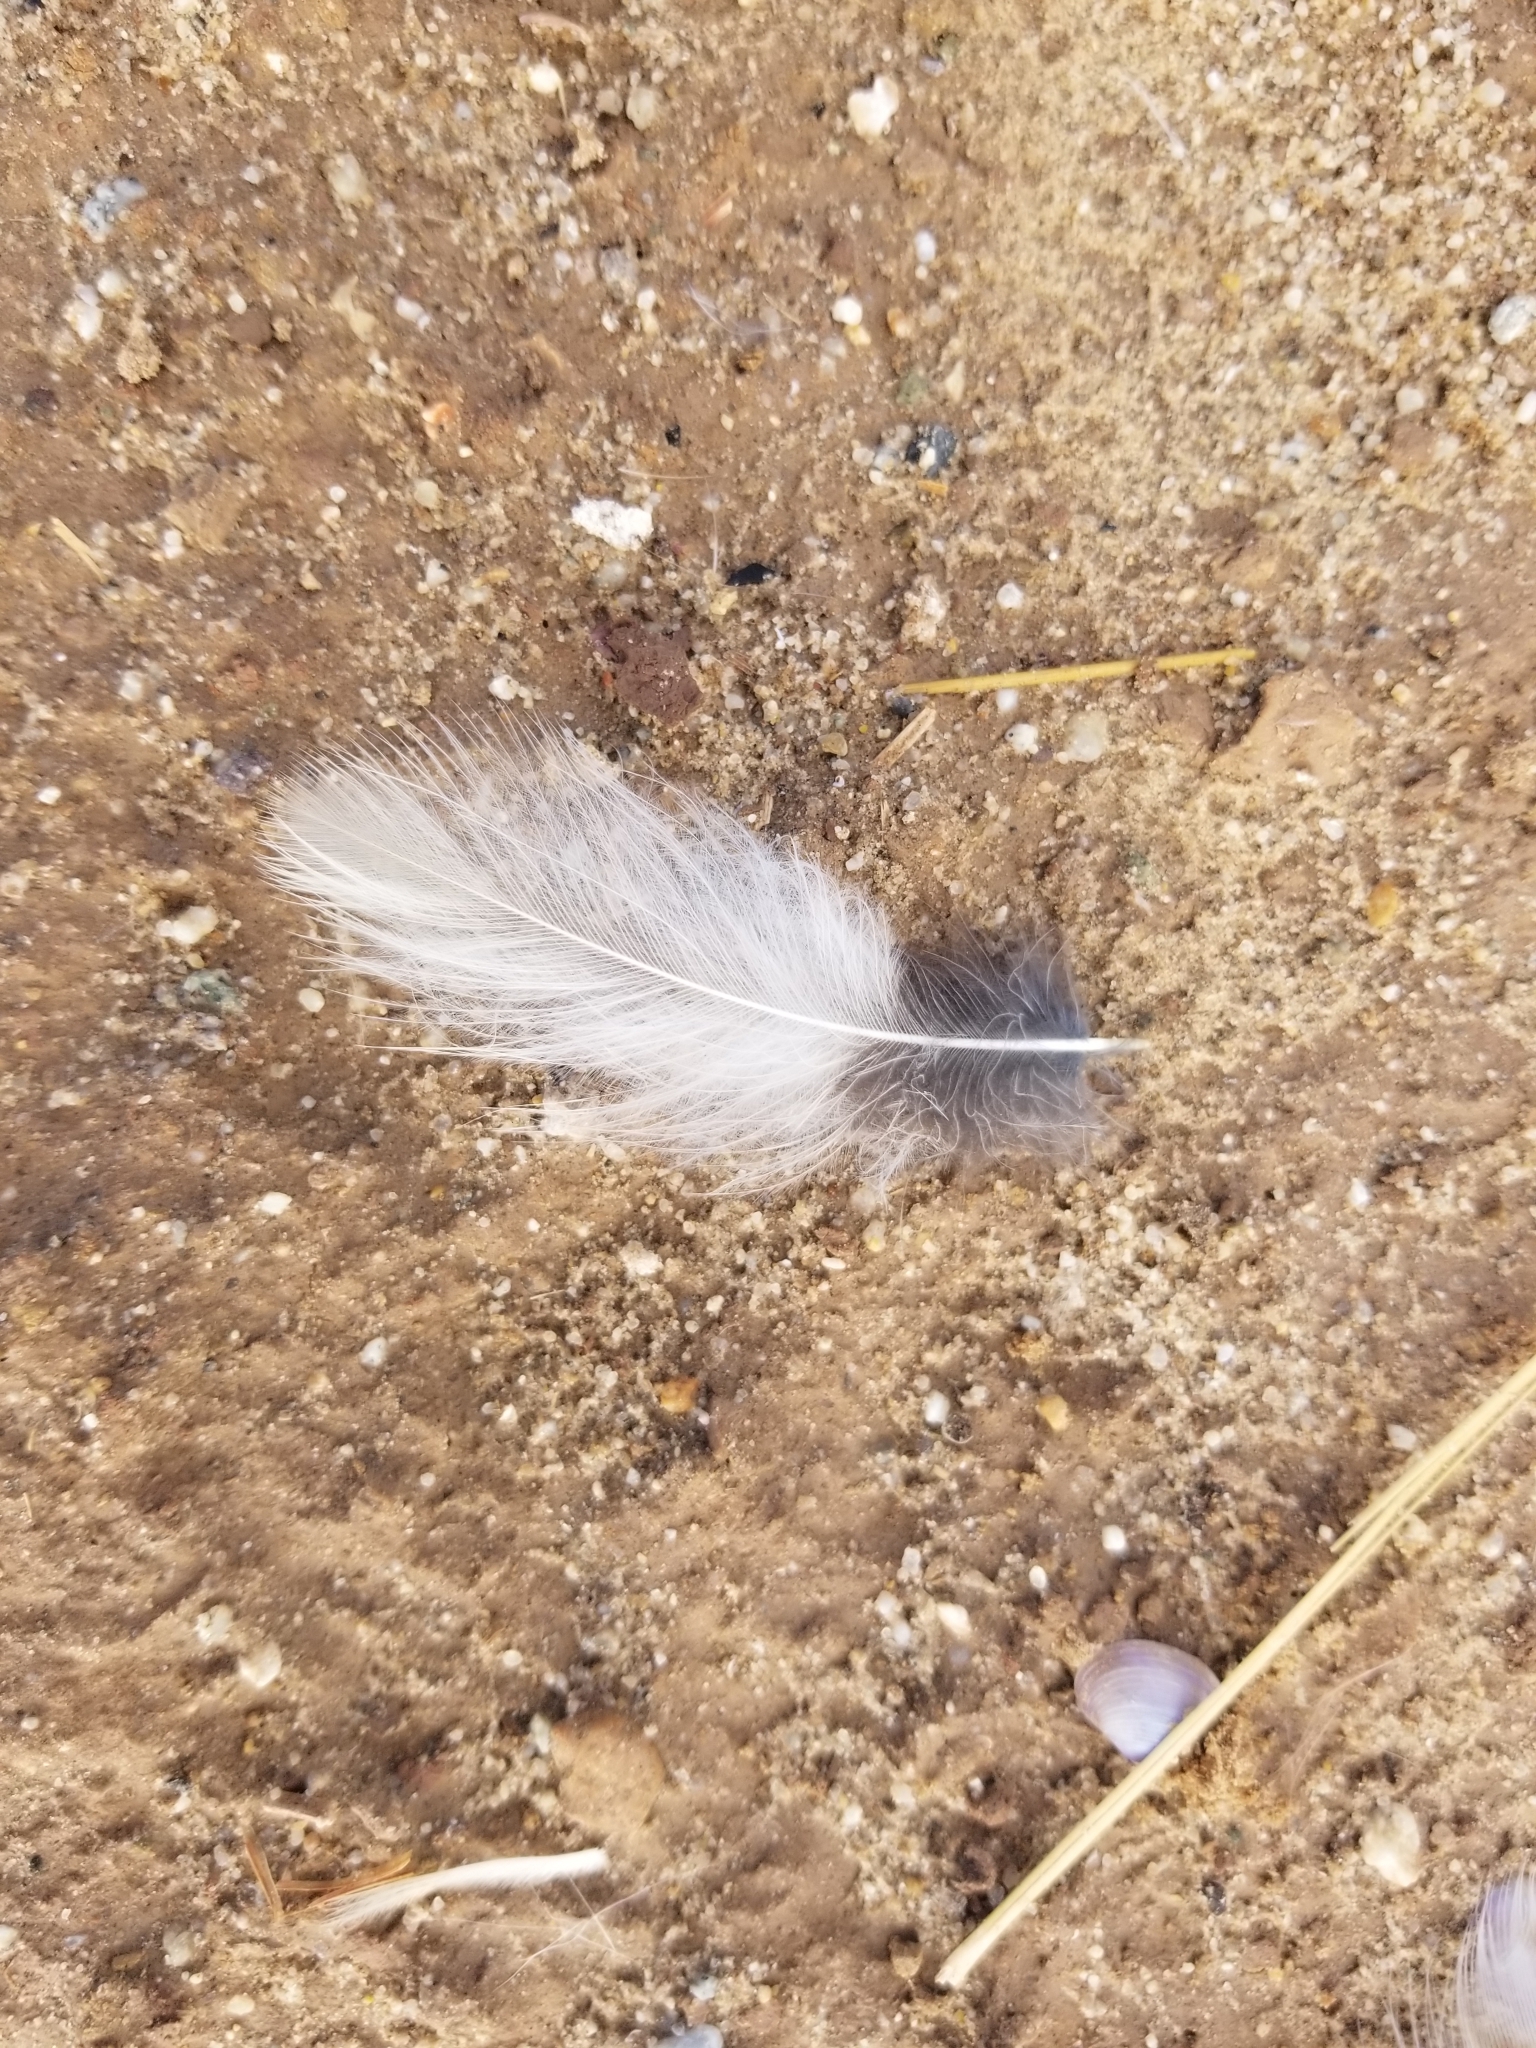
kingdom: Animalia
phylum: Chordata
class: Aves
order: Strigiformes
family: Strigidae
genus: Athene
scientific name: Athene cunicularia
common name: Burrowing owl
